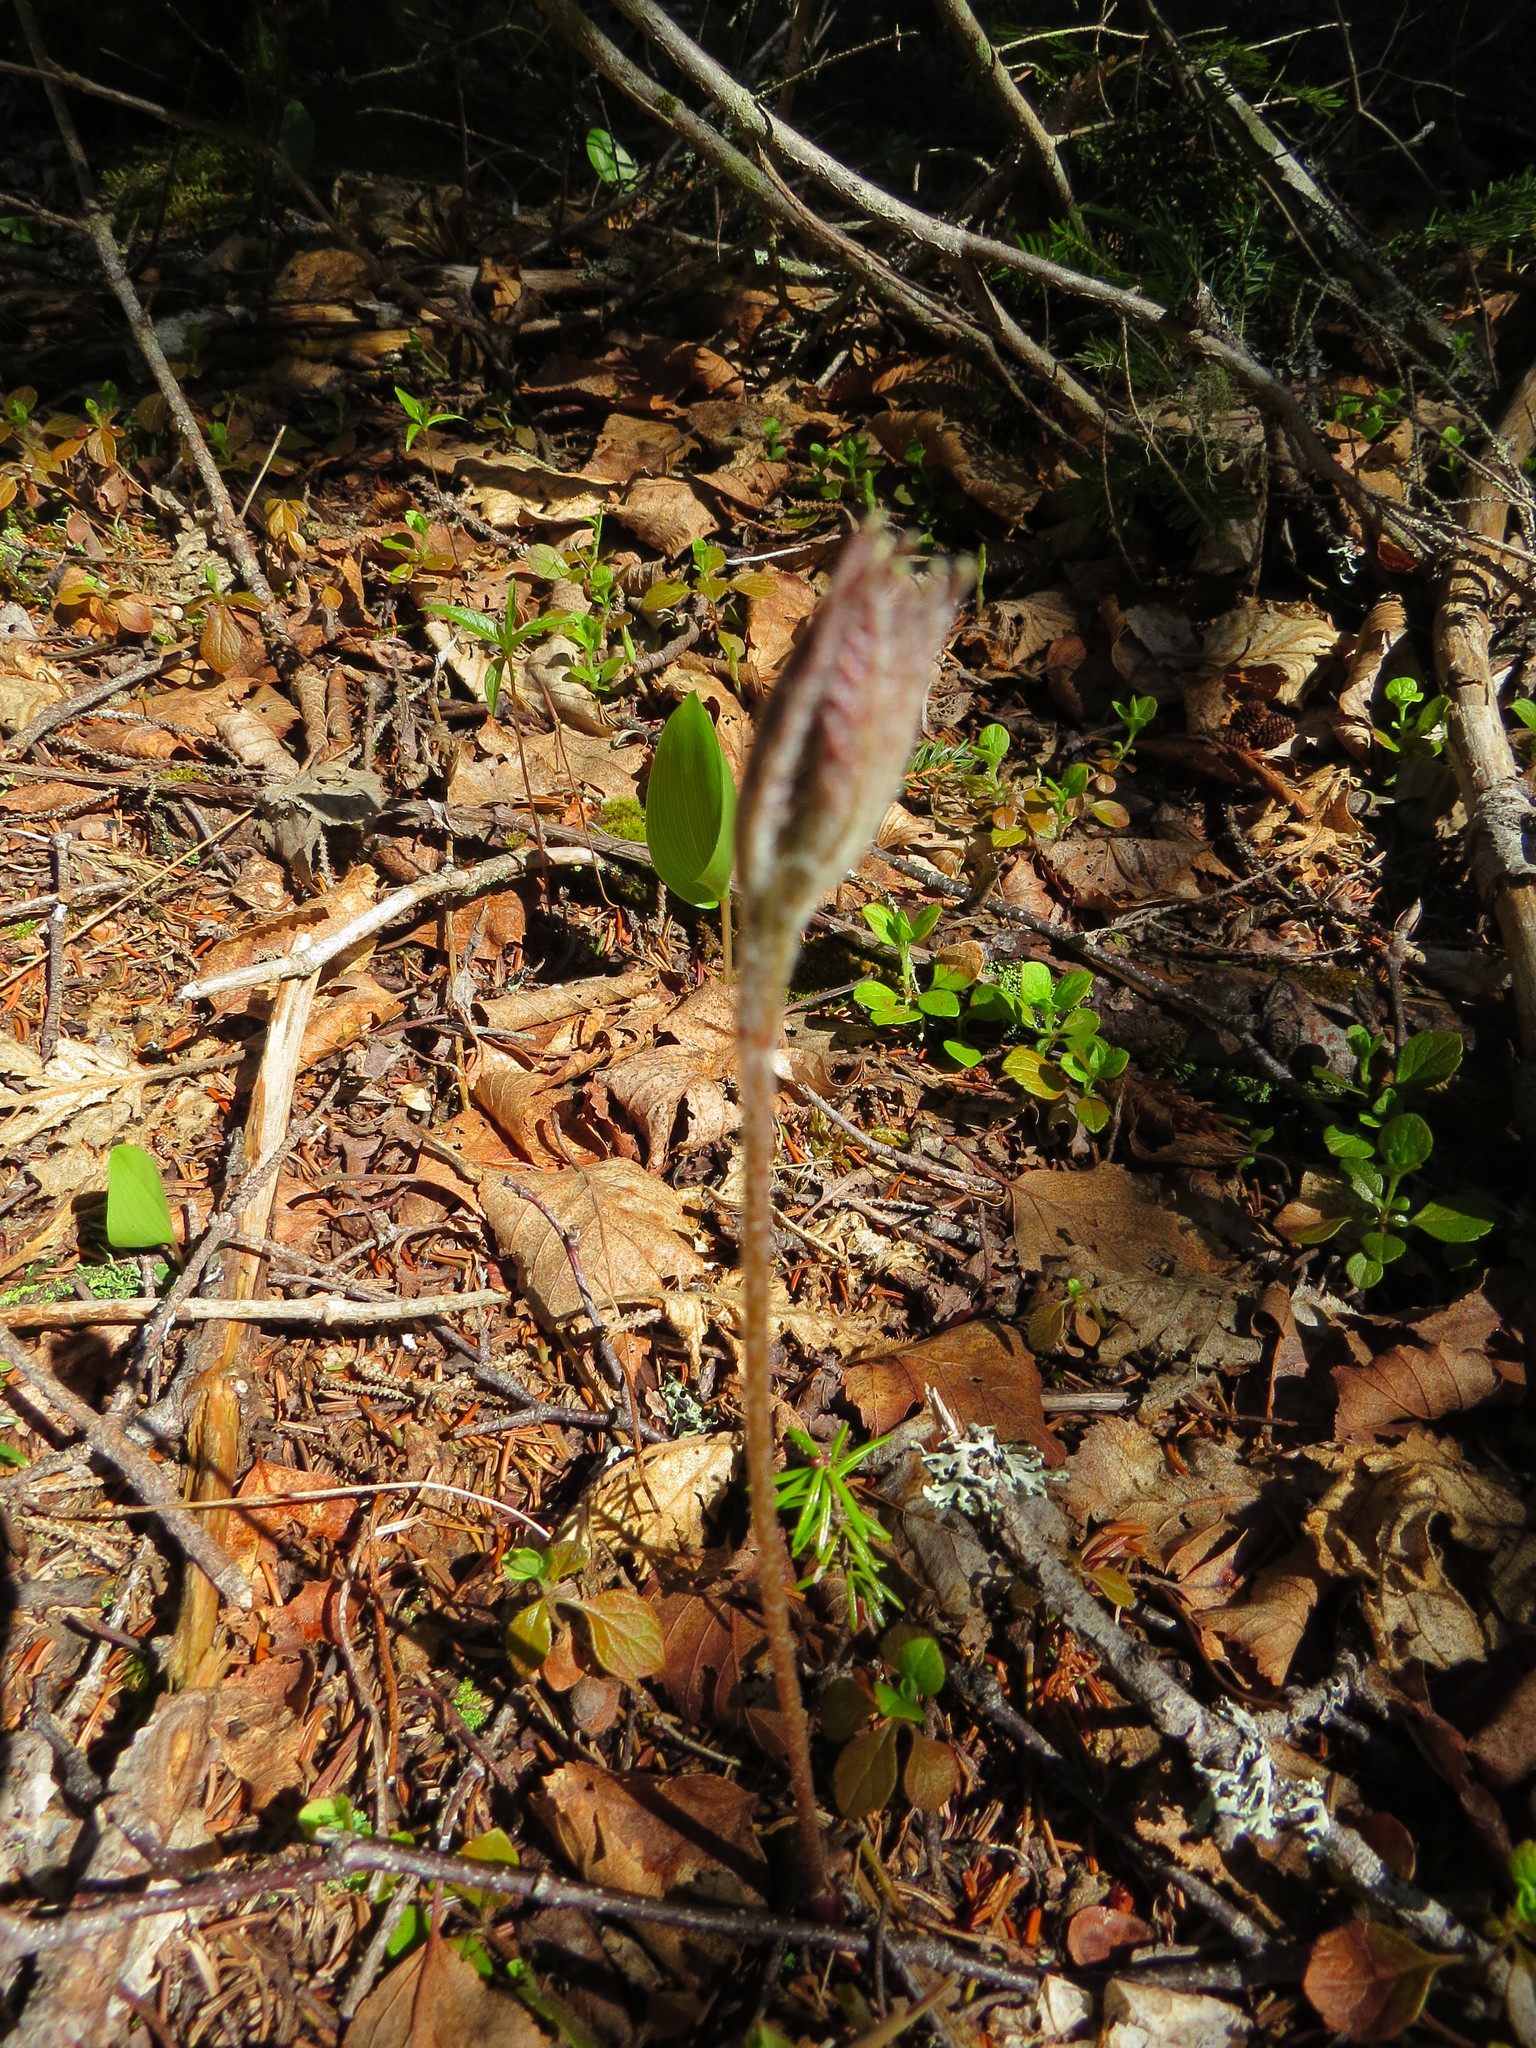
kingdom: Plantae
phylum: Tracheophyta
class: Magnoliopsida
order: Apiales
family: Araliaceae
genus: Aralia
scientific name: Aralia nudicaulis
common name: Wild sarsaparilla
